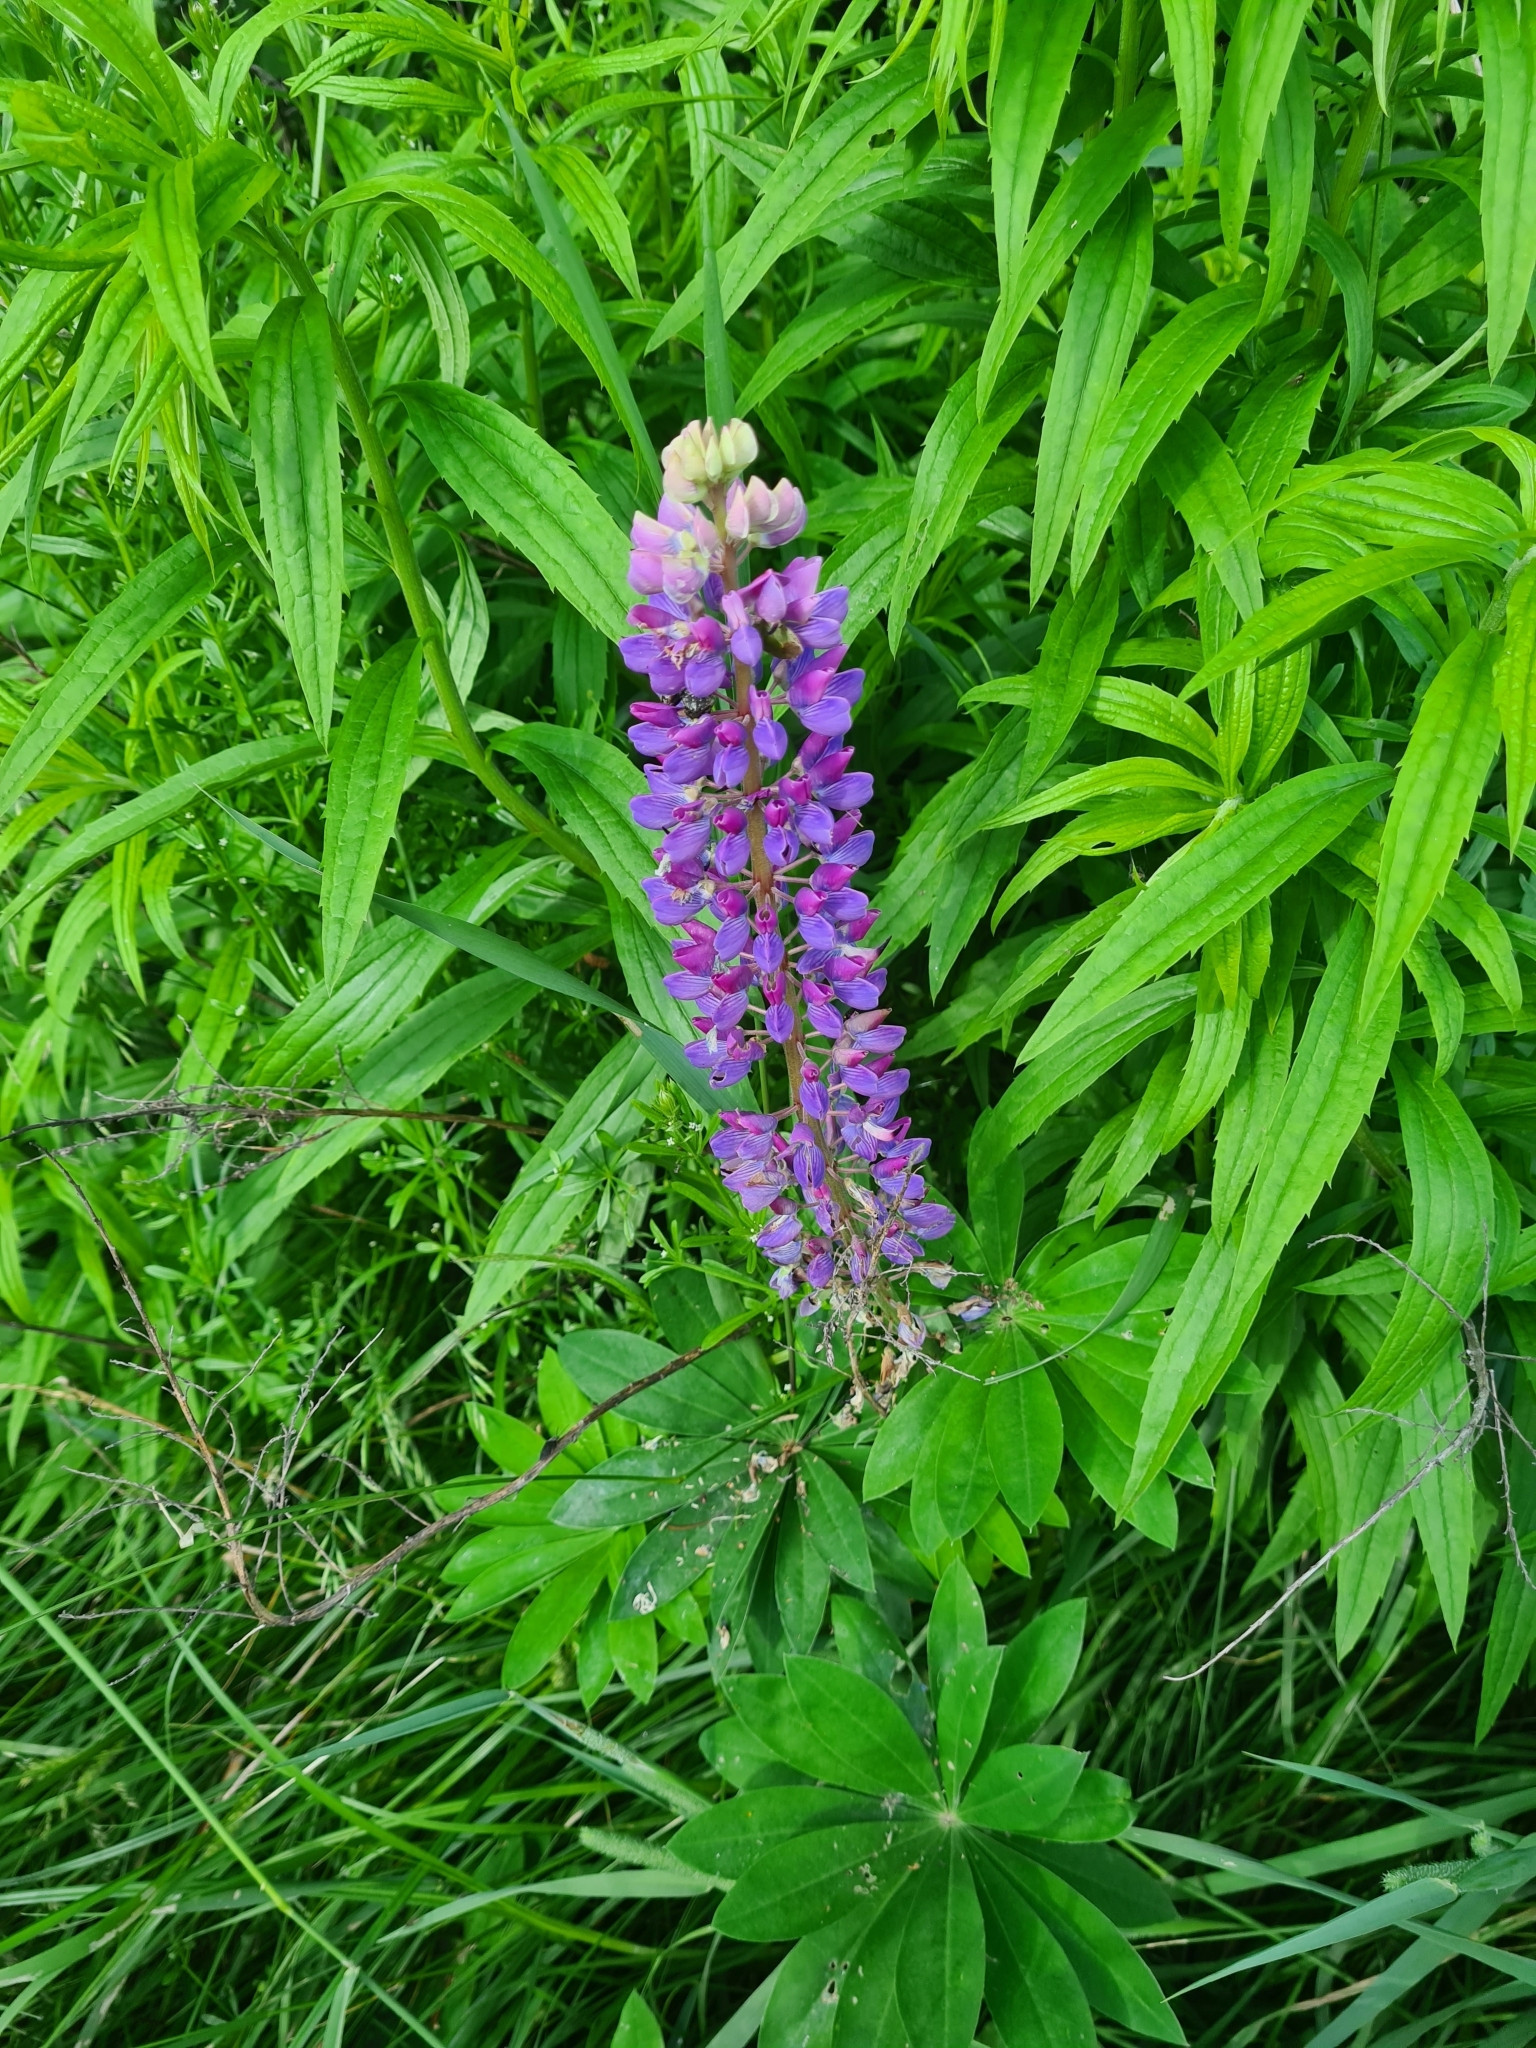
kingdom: Plantae
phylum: Tracheophyta
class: Magnoliopsida
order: Fabales
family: Fabaceae
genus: Lupinus
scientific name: Lupinus polyphyllus
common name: Garden lupin
